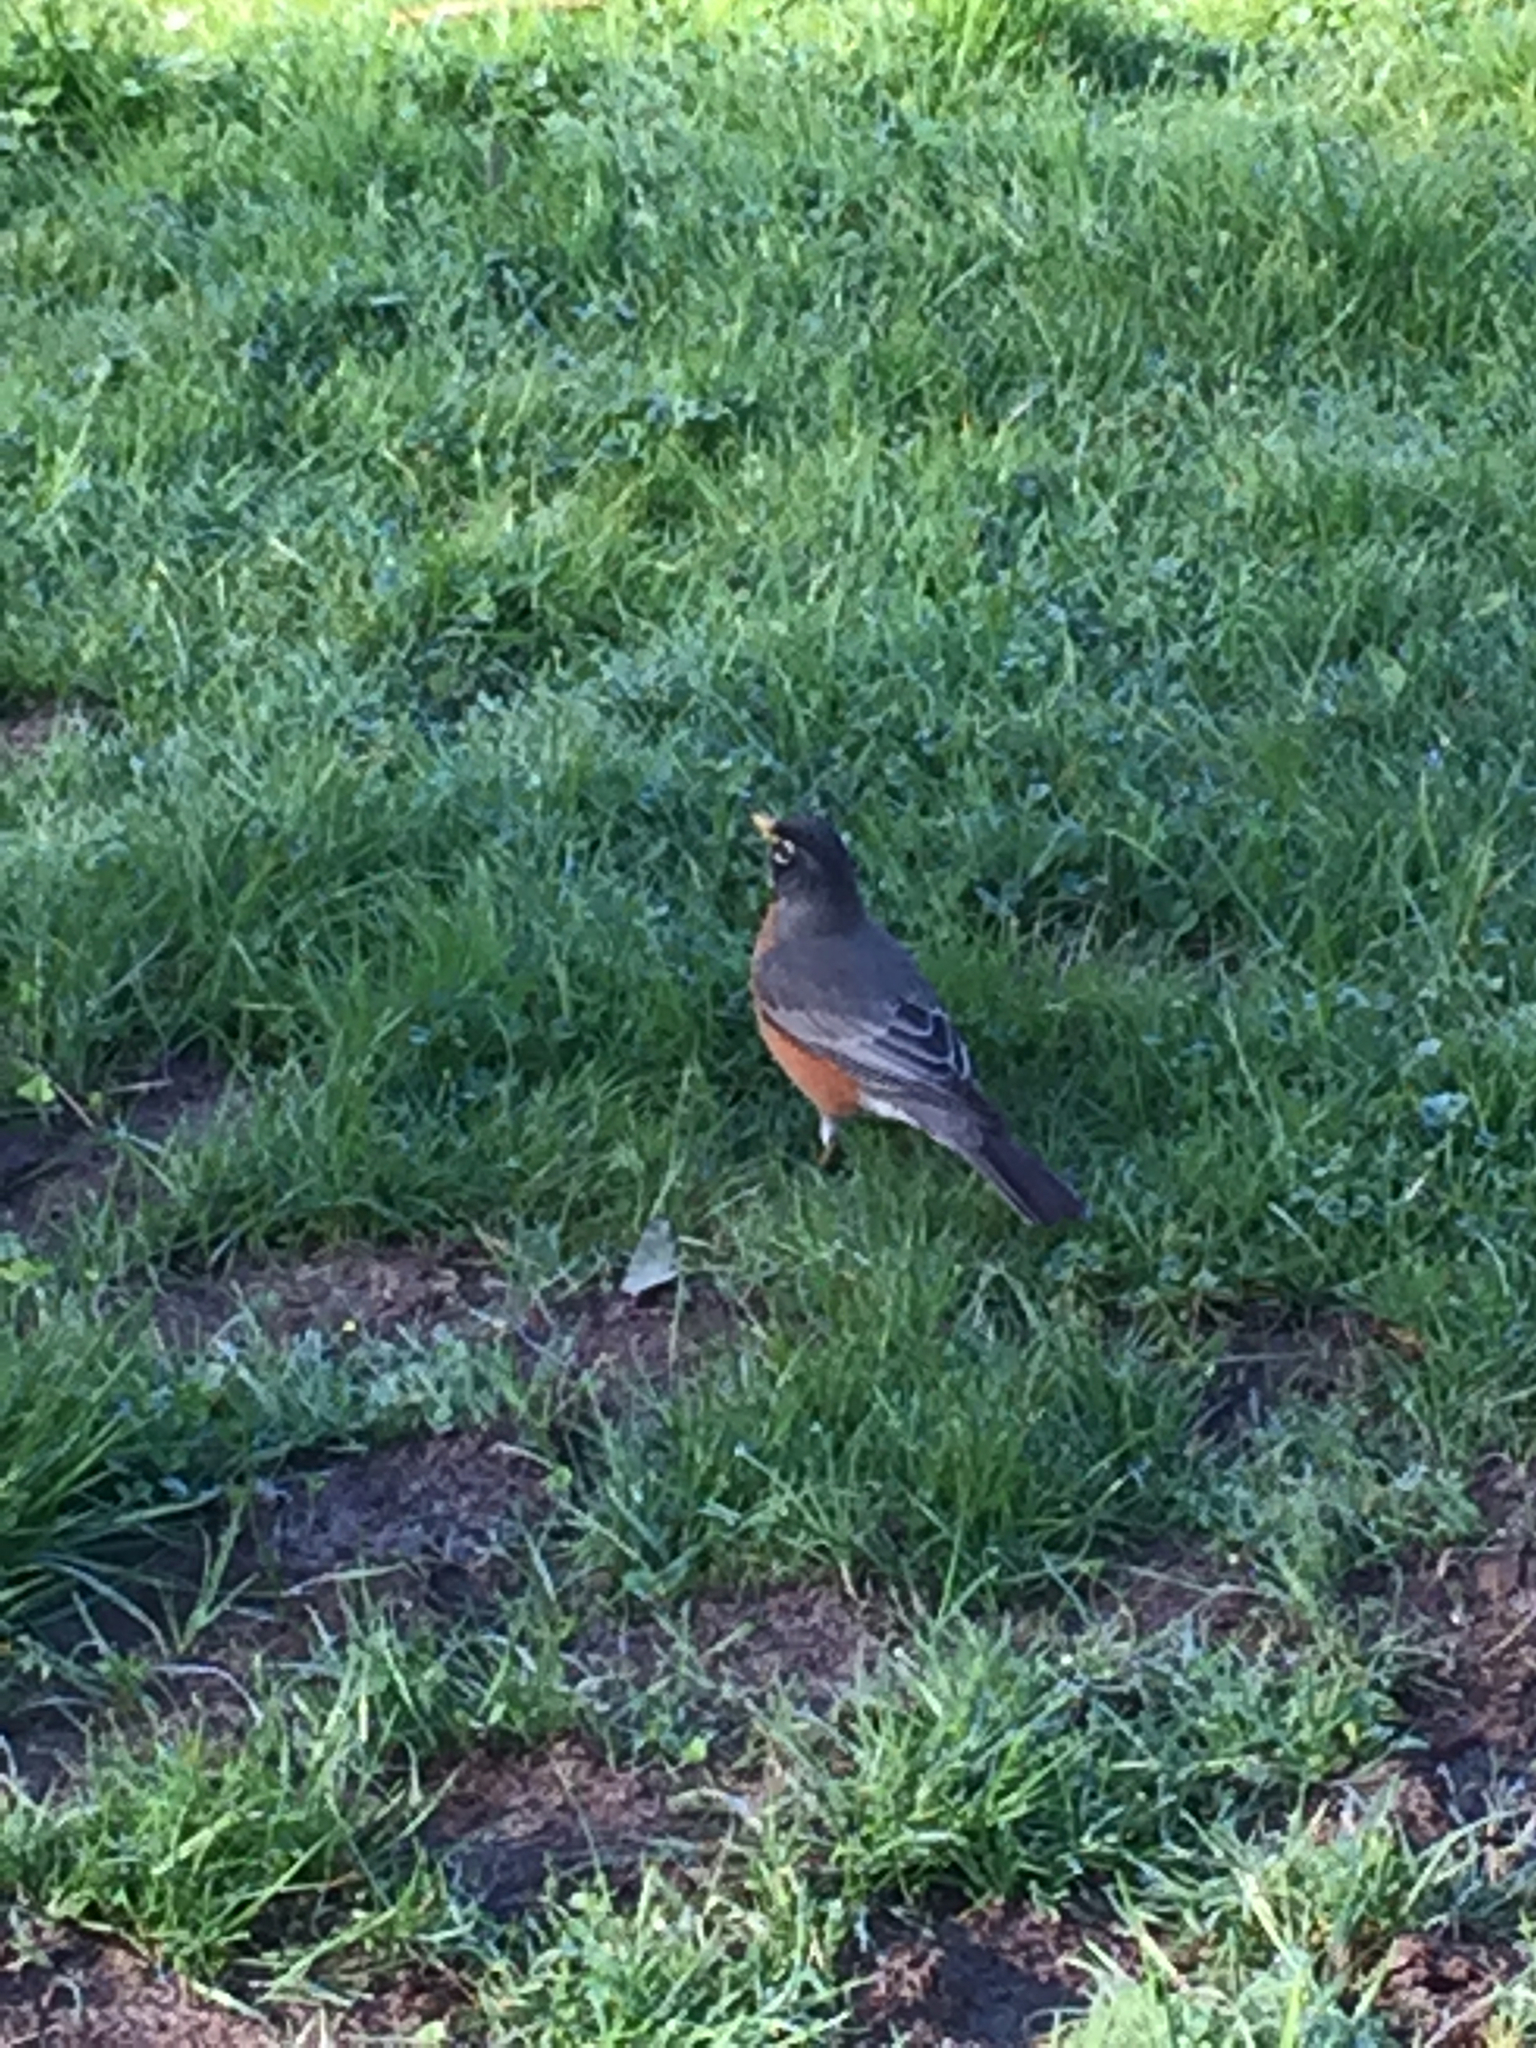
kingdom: Animalia
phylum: Chordata
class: Aves
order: Passeriformes
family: Turdidae
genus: Turdus
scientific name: Turdus migratorius
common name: American robin
